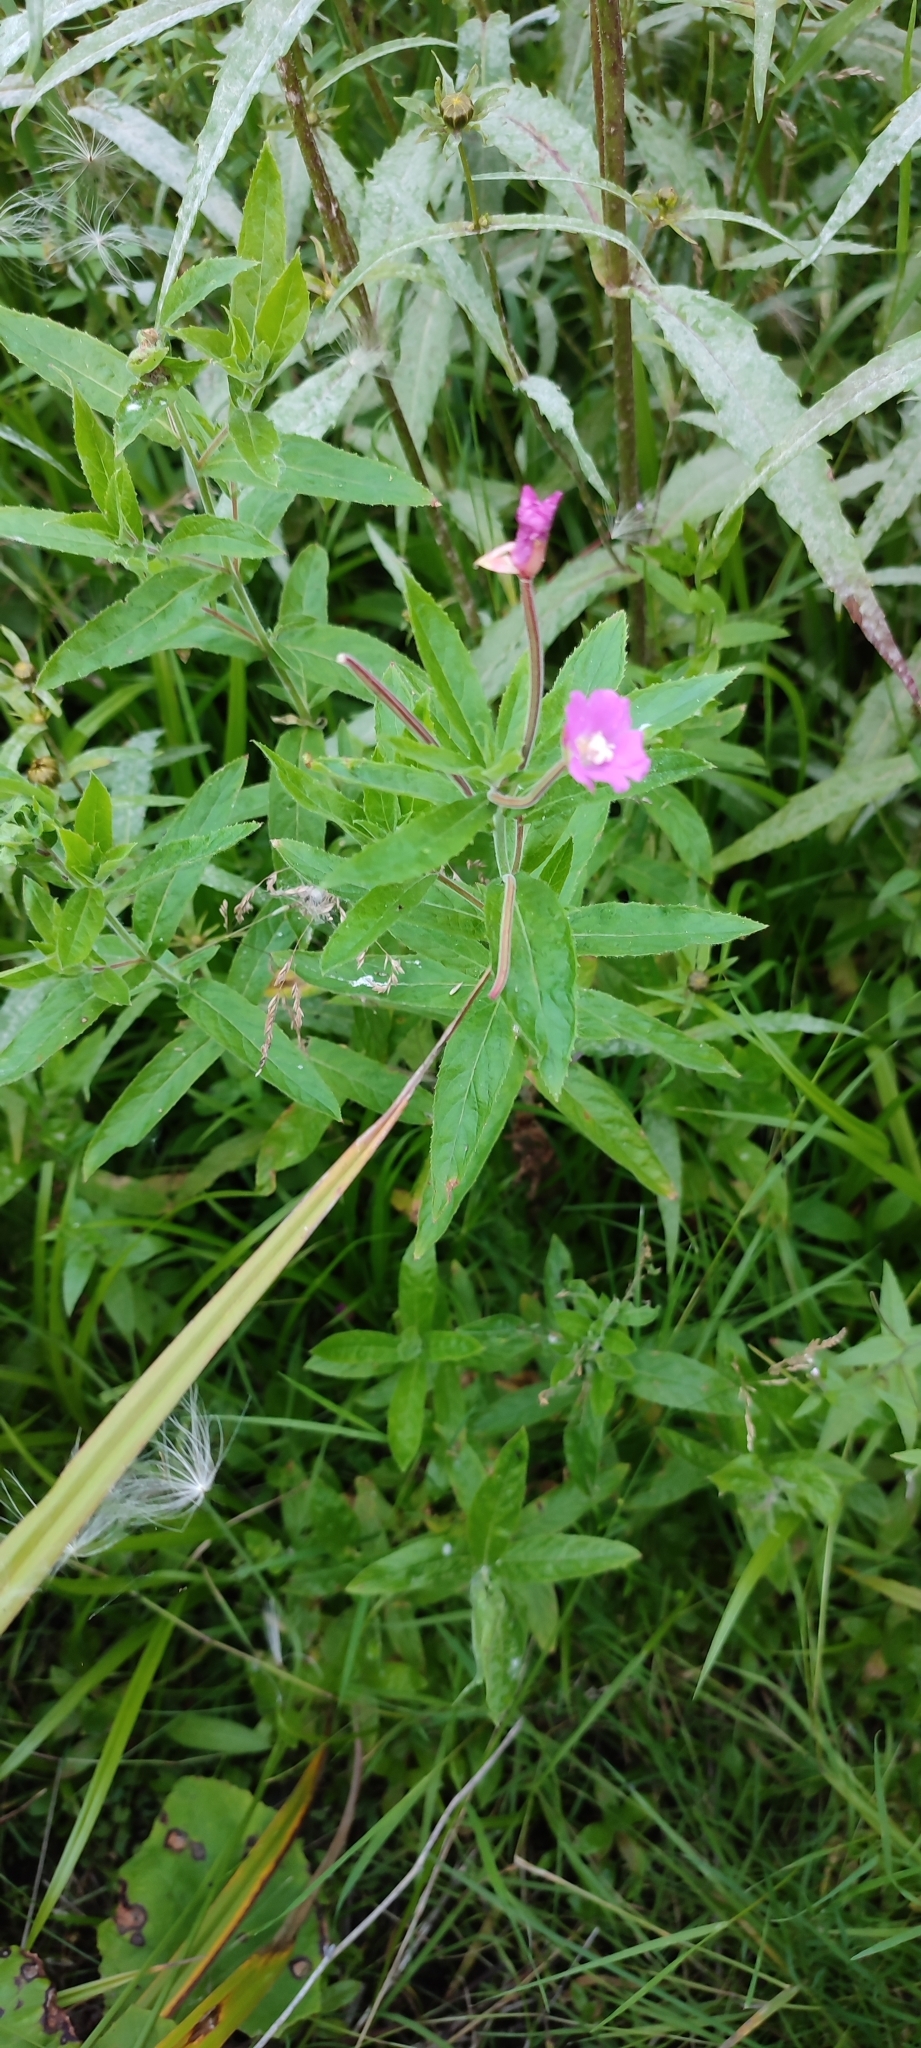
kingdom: Plantae
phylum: Tracheophyta
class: Magnoliopsida
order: Myrtales
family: Onagraceae
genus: Epilobium
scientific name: Epilobium hirsutum
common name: Great willowherb
